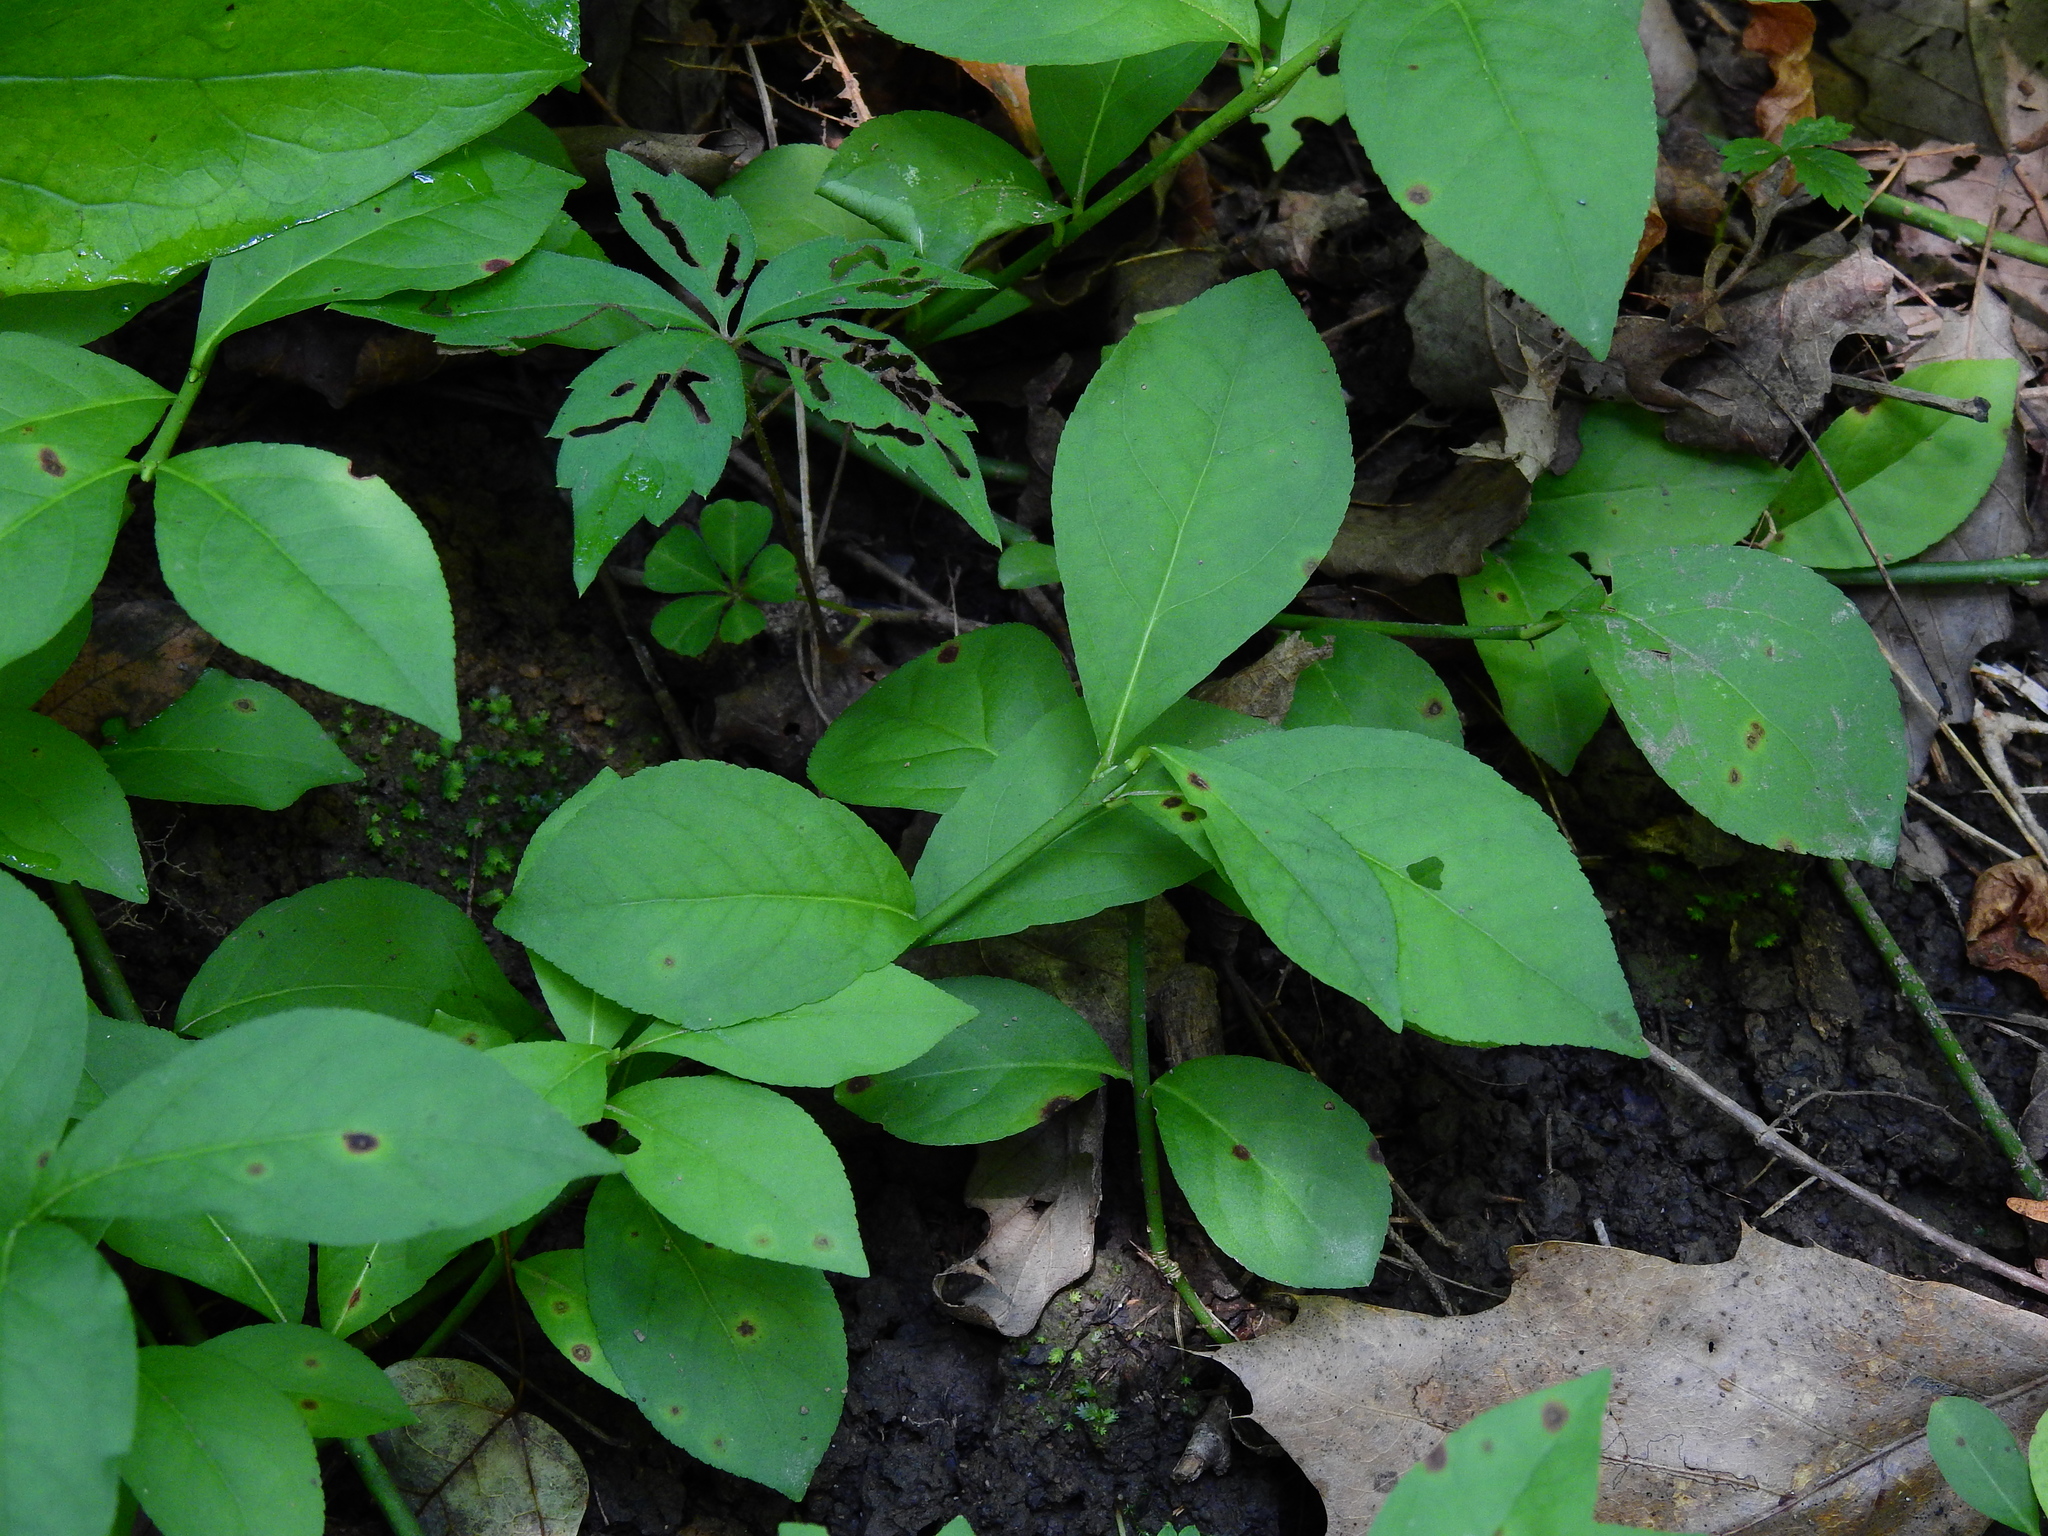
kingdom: Plantae
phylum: Tracheophyta
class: Magnoliopsida
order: Celastrales
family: Celastraceae
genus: Euonymus
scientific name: Euonymus obovatus
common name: Running strawberry-bush
